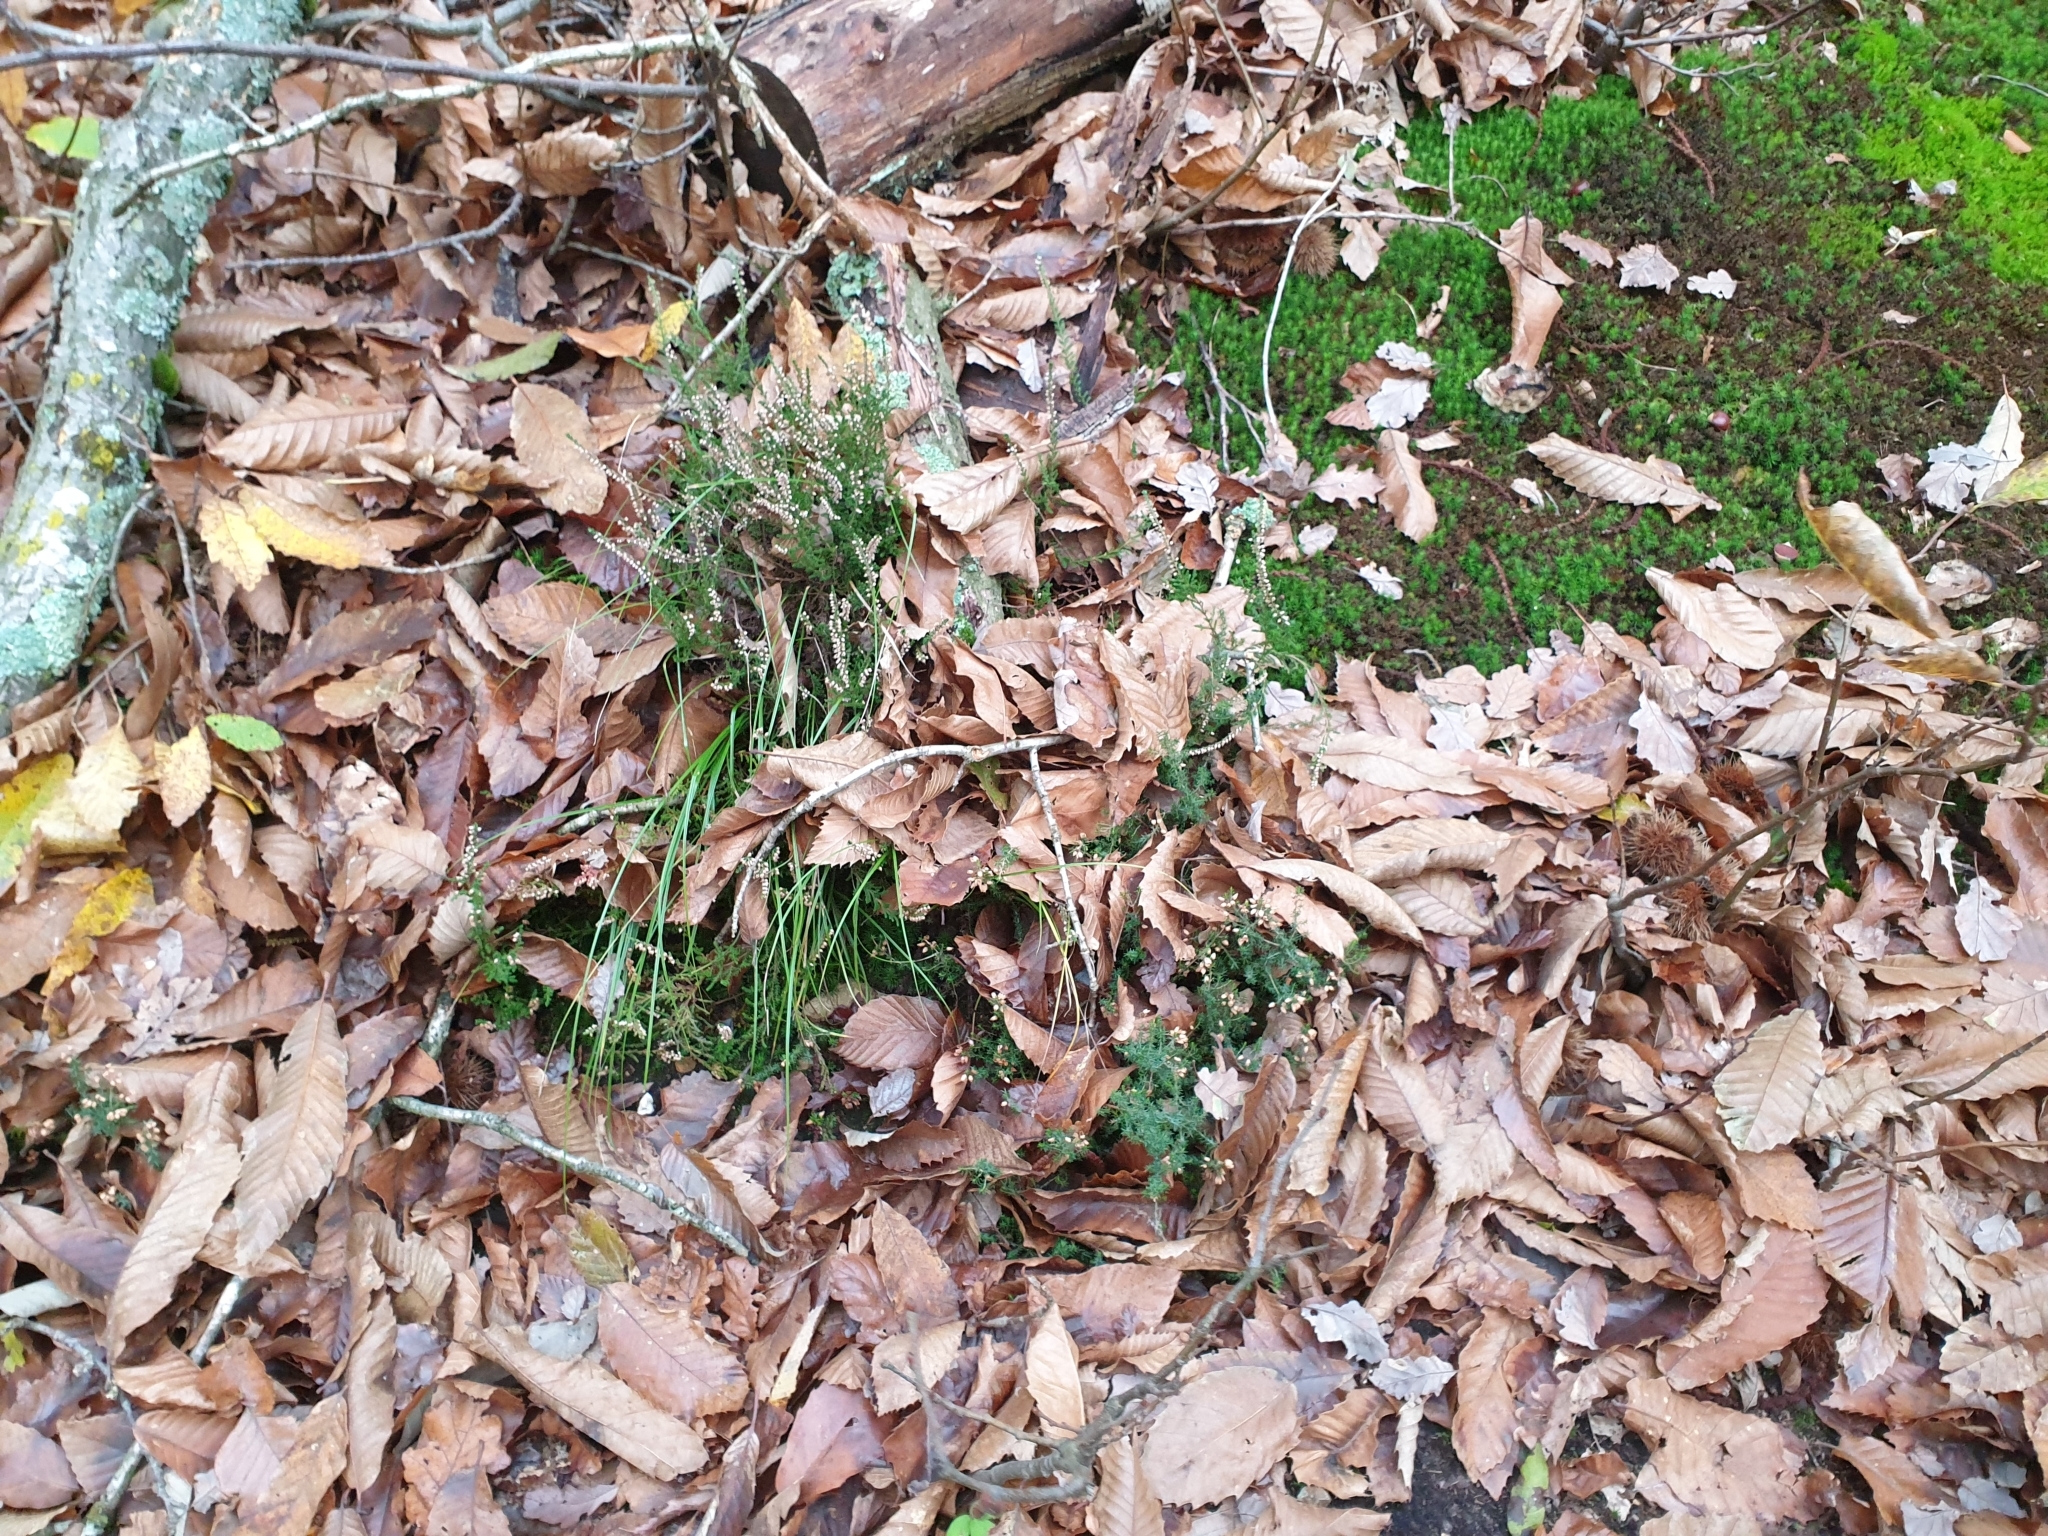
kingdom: Plantae
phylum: Tracheophyta
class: Magnoliopsida
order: Ericales
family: Ericaceae
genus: Calluna
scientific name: Calluna vulgaris
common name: Heather
